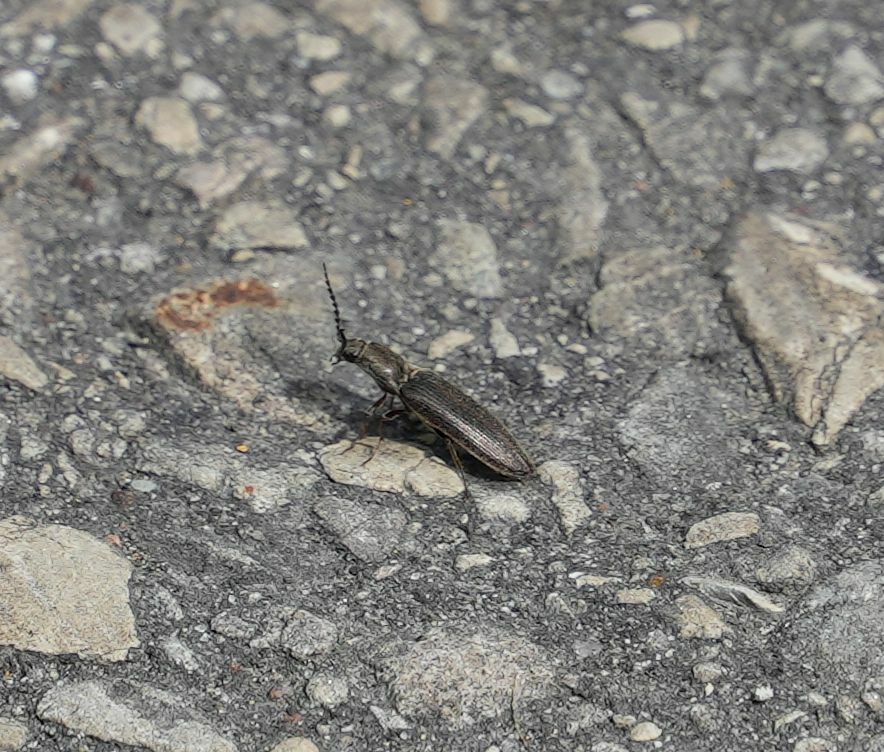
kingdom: Animalia
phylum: Arthropoda
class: Insecta
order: Coleoptera
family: Elateridae
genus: Sylvanelater
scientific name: Sylvanelater cylindriformis
